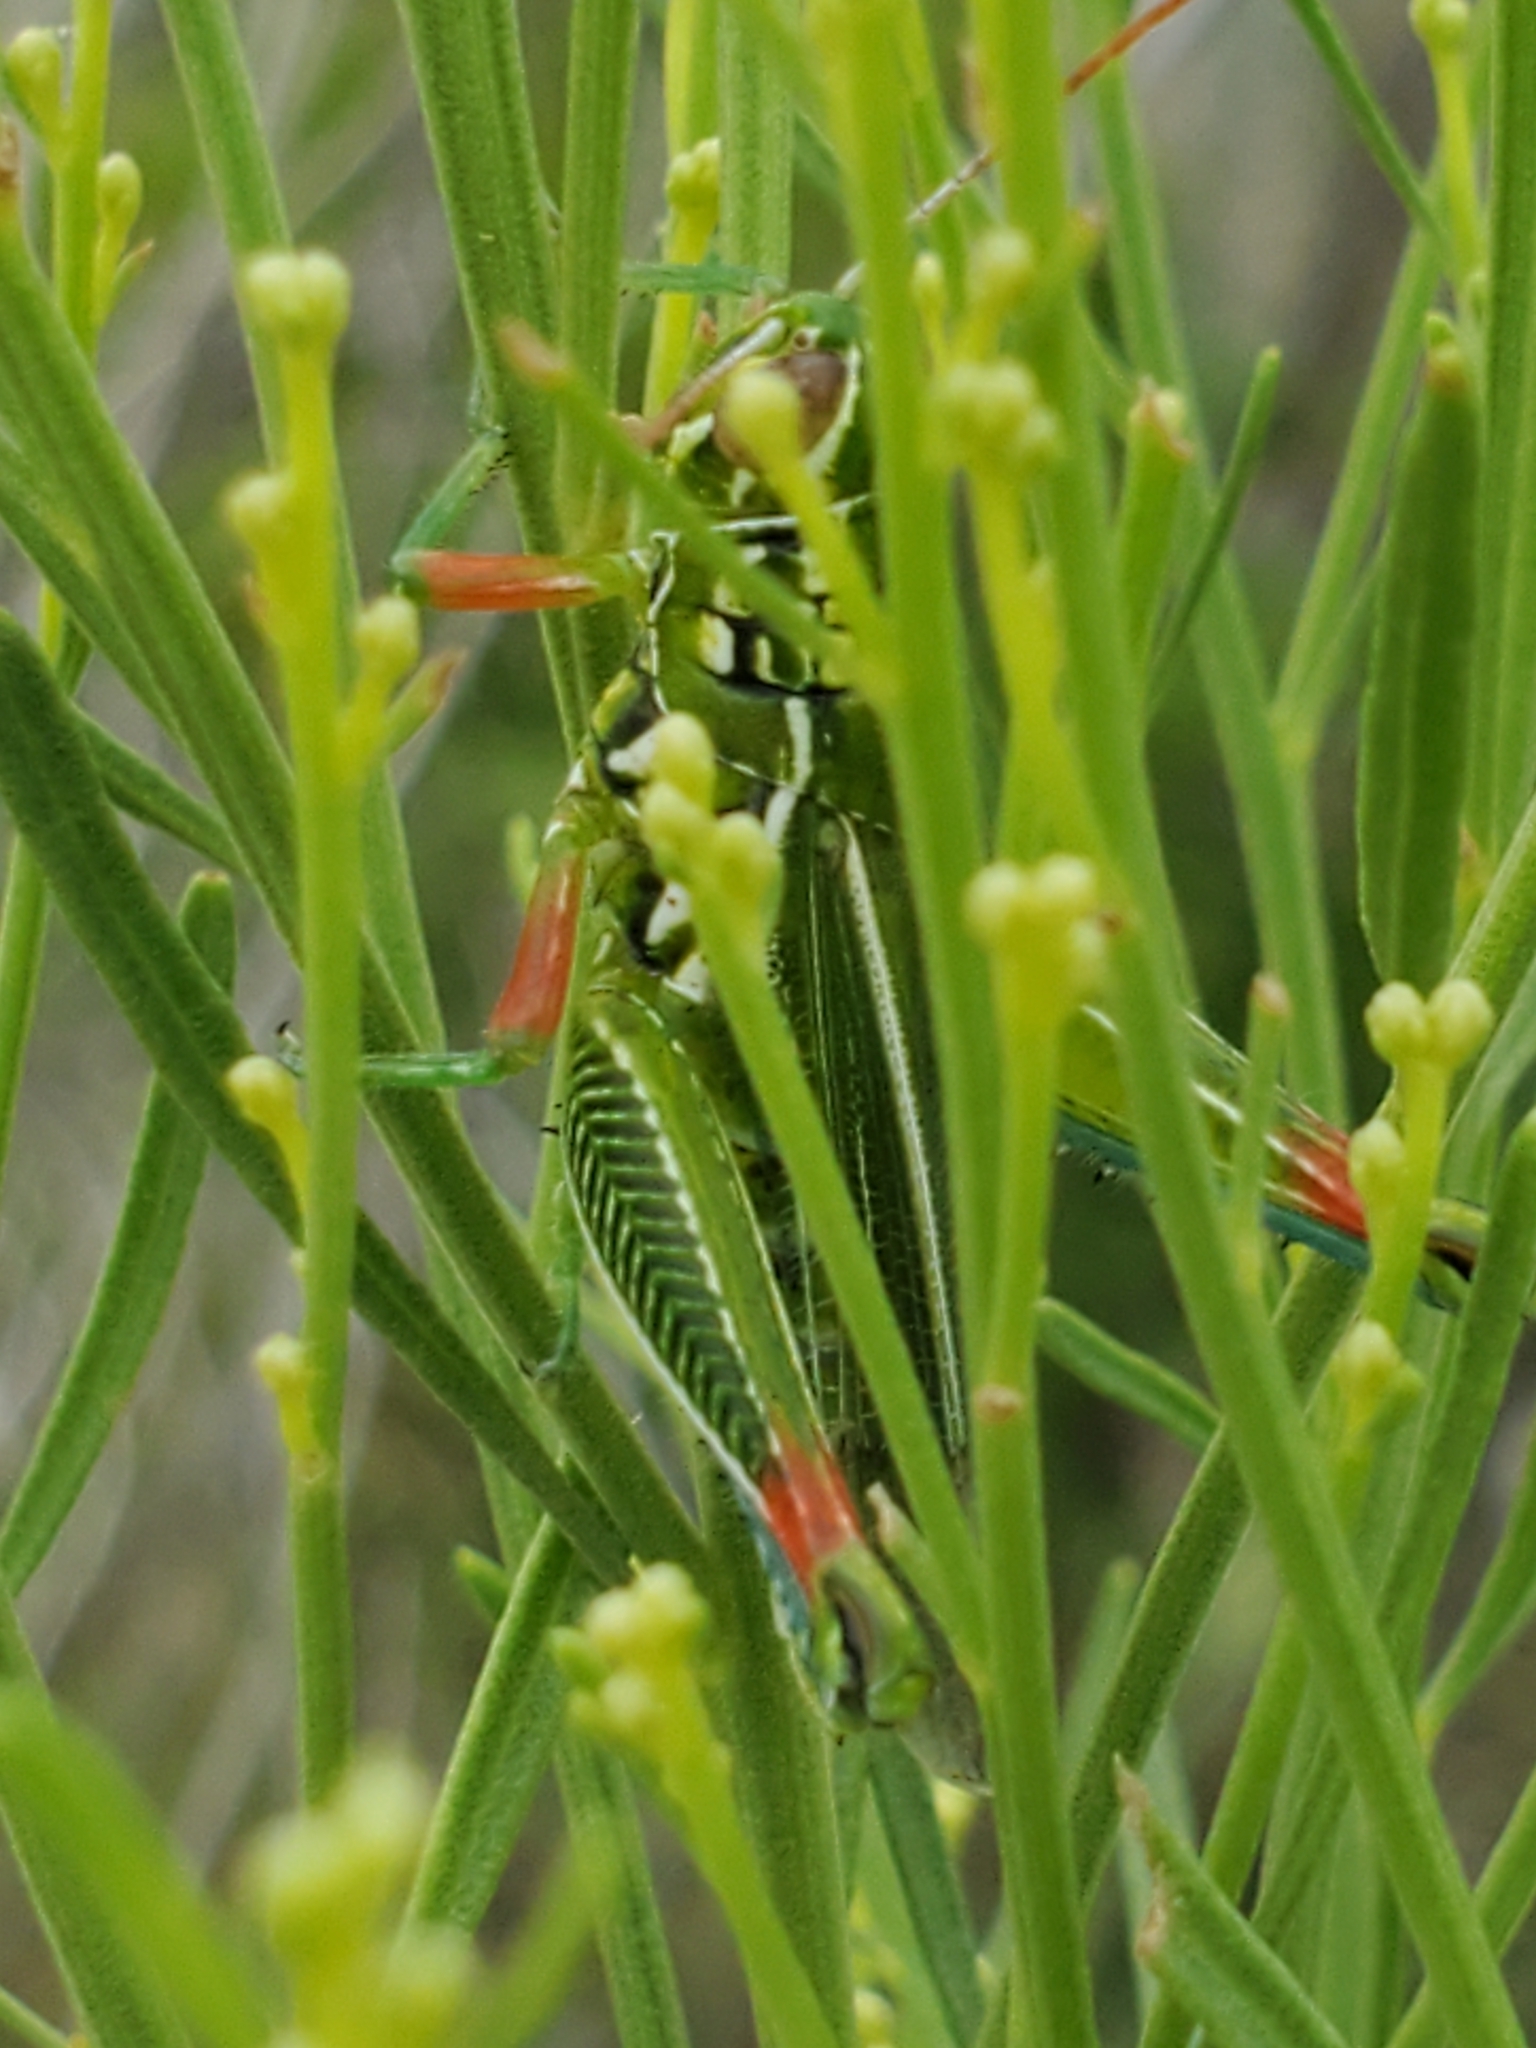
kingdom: Animalia
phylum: Arthropoda
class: Insecta
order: Orthoptera
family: Acrididae
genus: Hesperotettix
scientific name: Hesperotettix viridis
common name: Meadow purple-striped grasshopper
